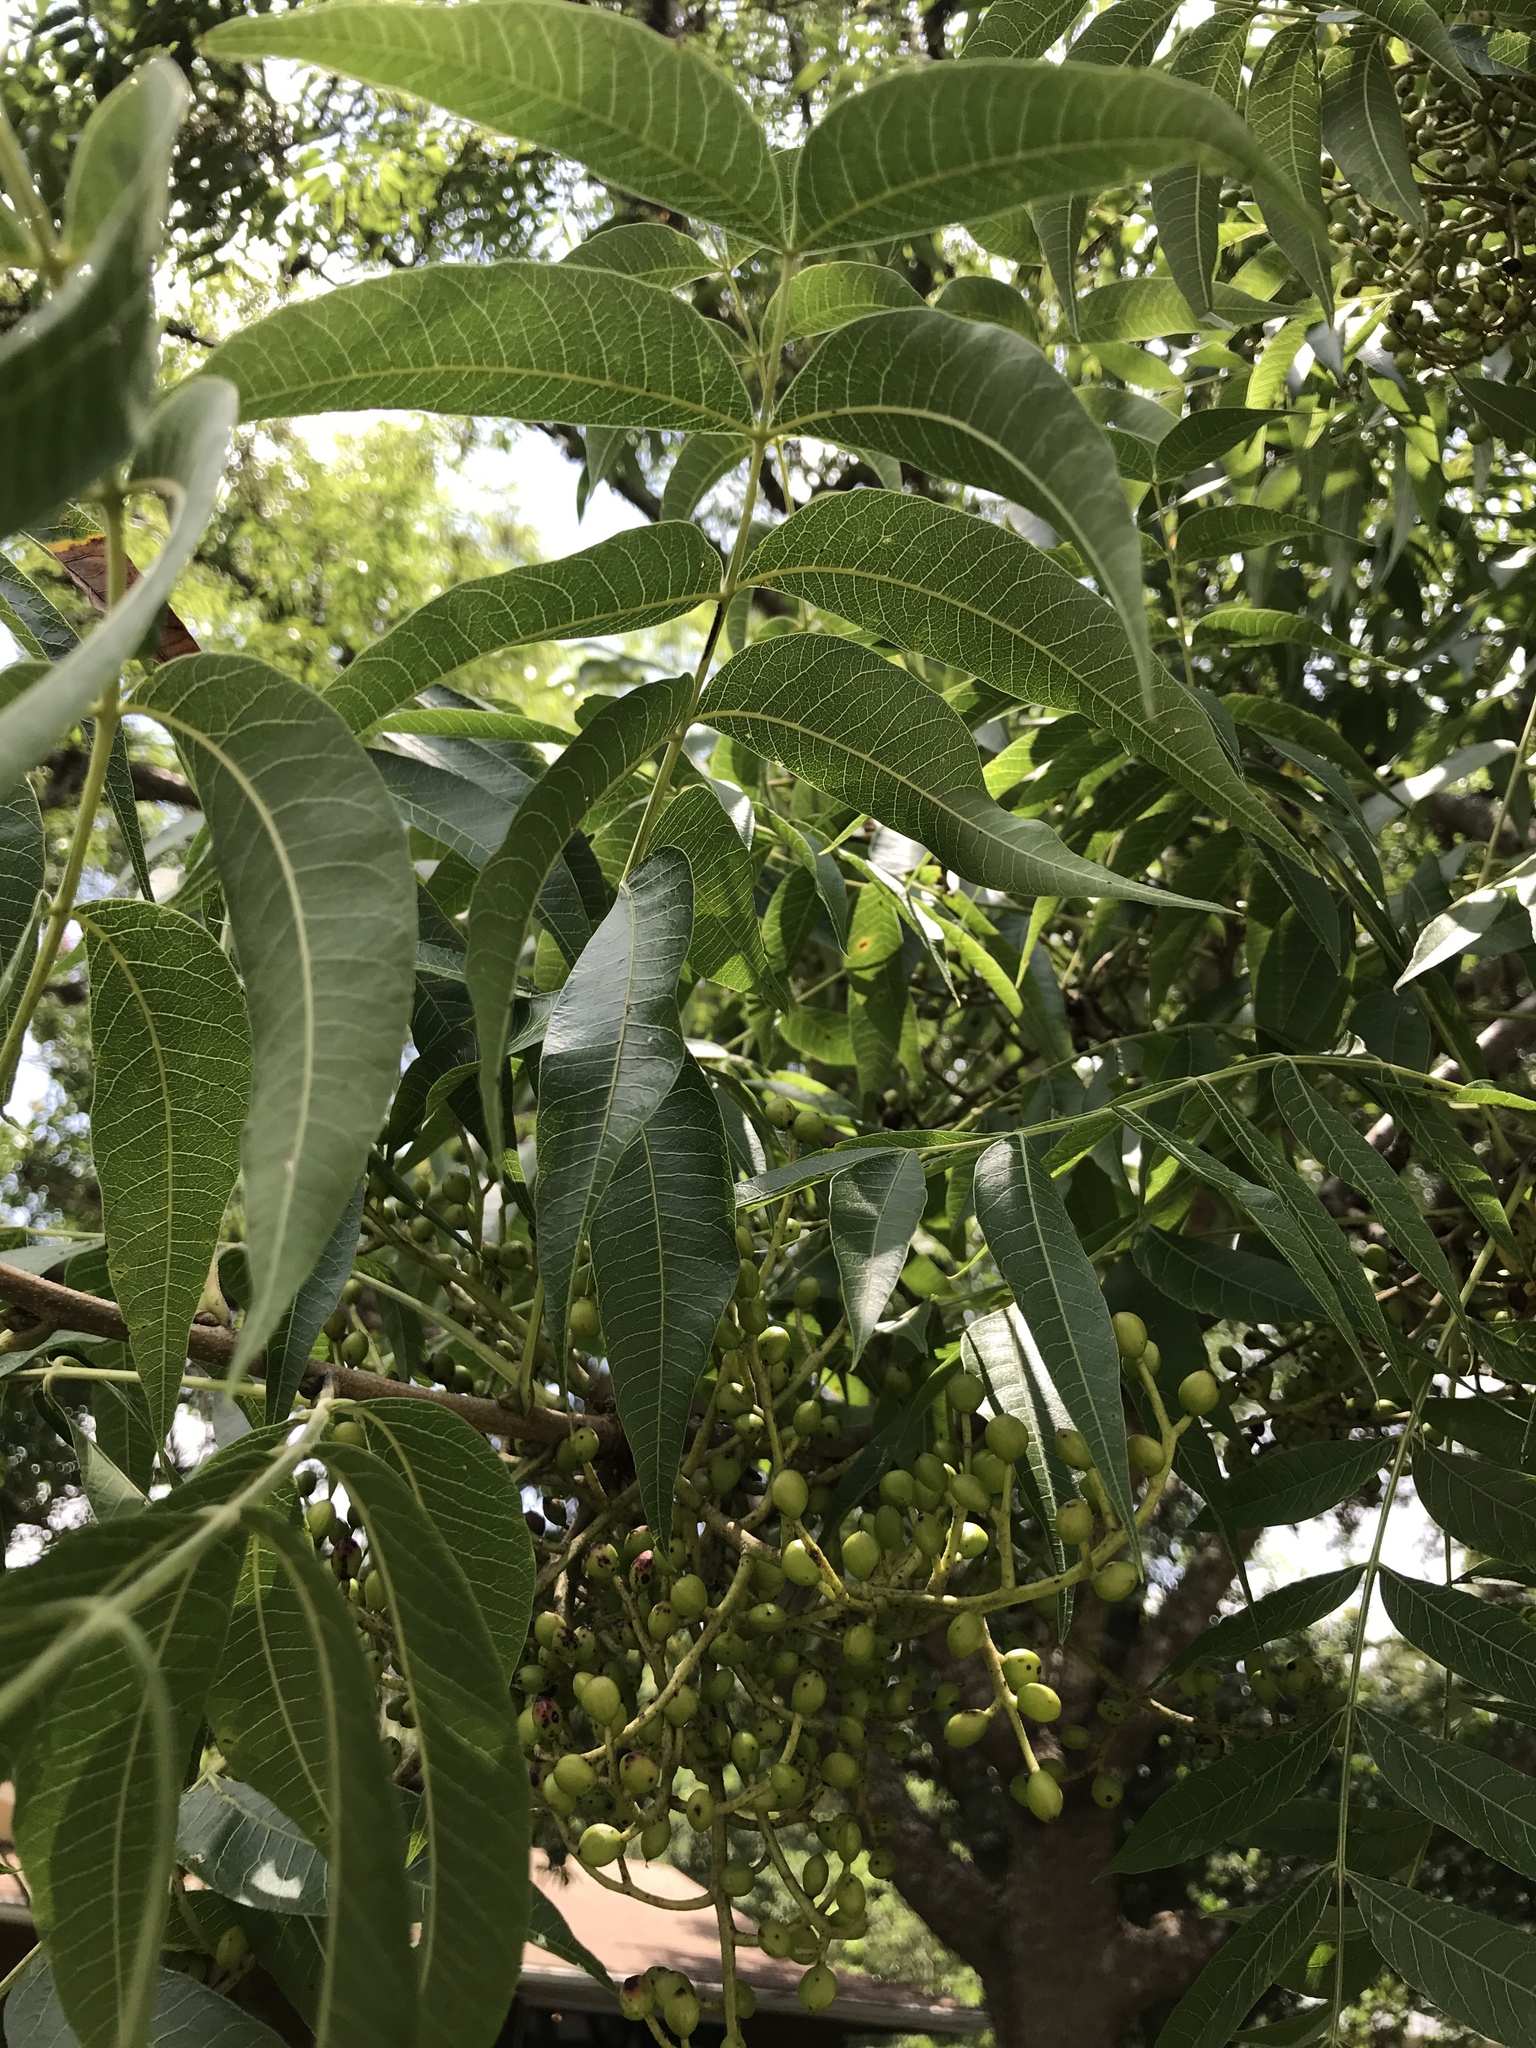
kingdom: Plantae
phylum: Tracheophyta
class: Magnoliopsida
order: Sapindales
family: Anacardiaceae
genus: Pistacia
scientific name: Pistacia chinensis
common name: Chinese pistache
